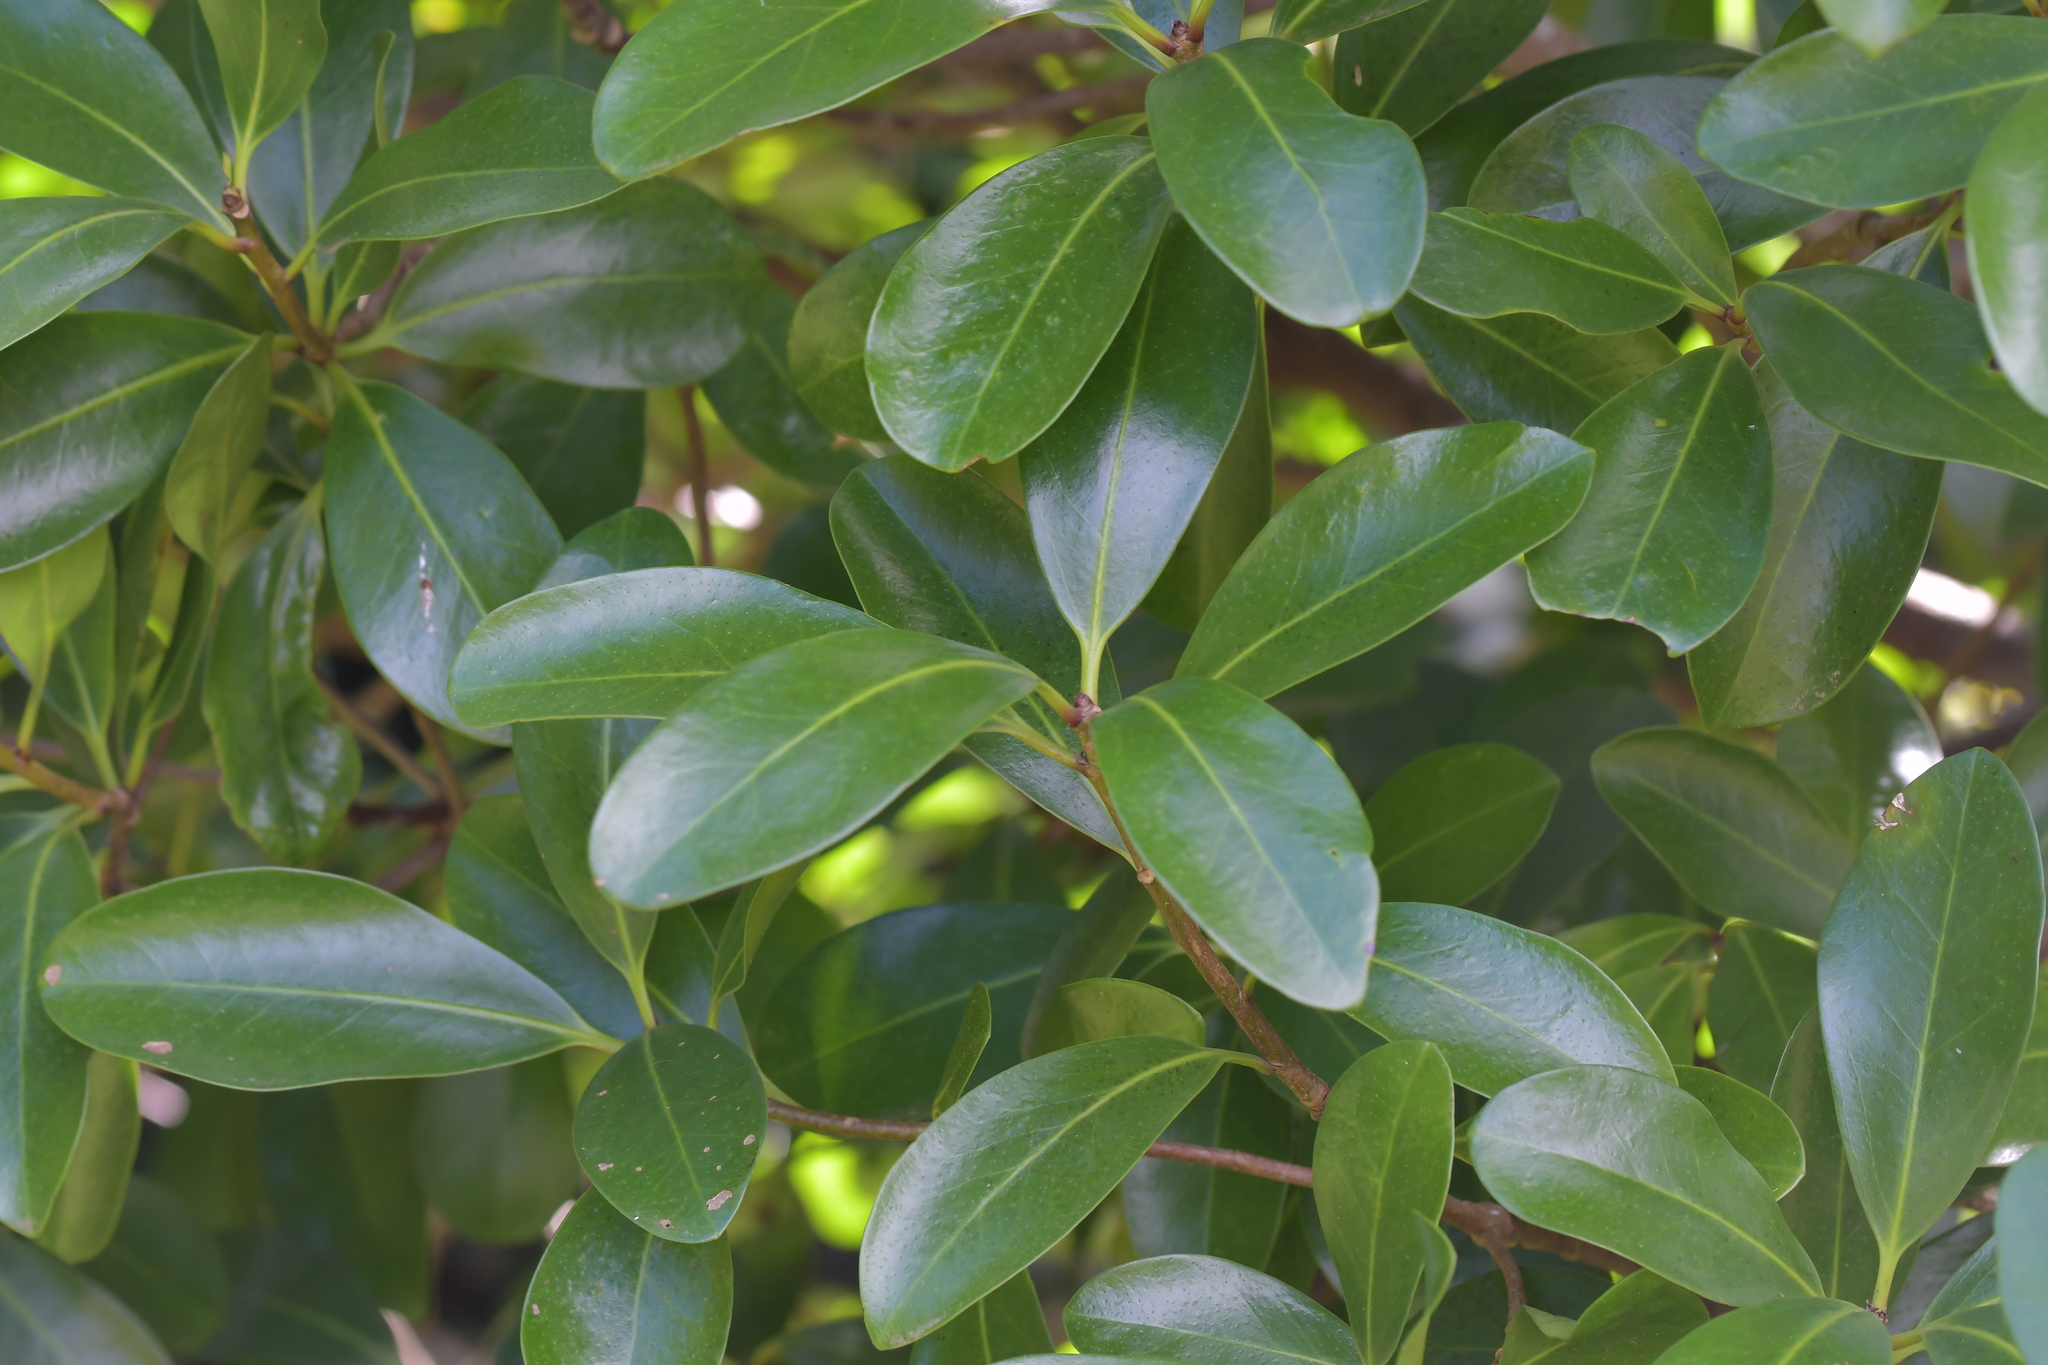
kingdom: Plantae
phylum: Tracheophyta
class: Magnoliopsida
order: Cucurbitales
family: Corynocarpaceae
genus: Corynocarpus
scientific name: Corynocarpus laevigatus
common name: New zealand laurel
